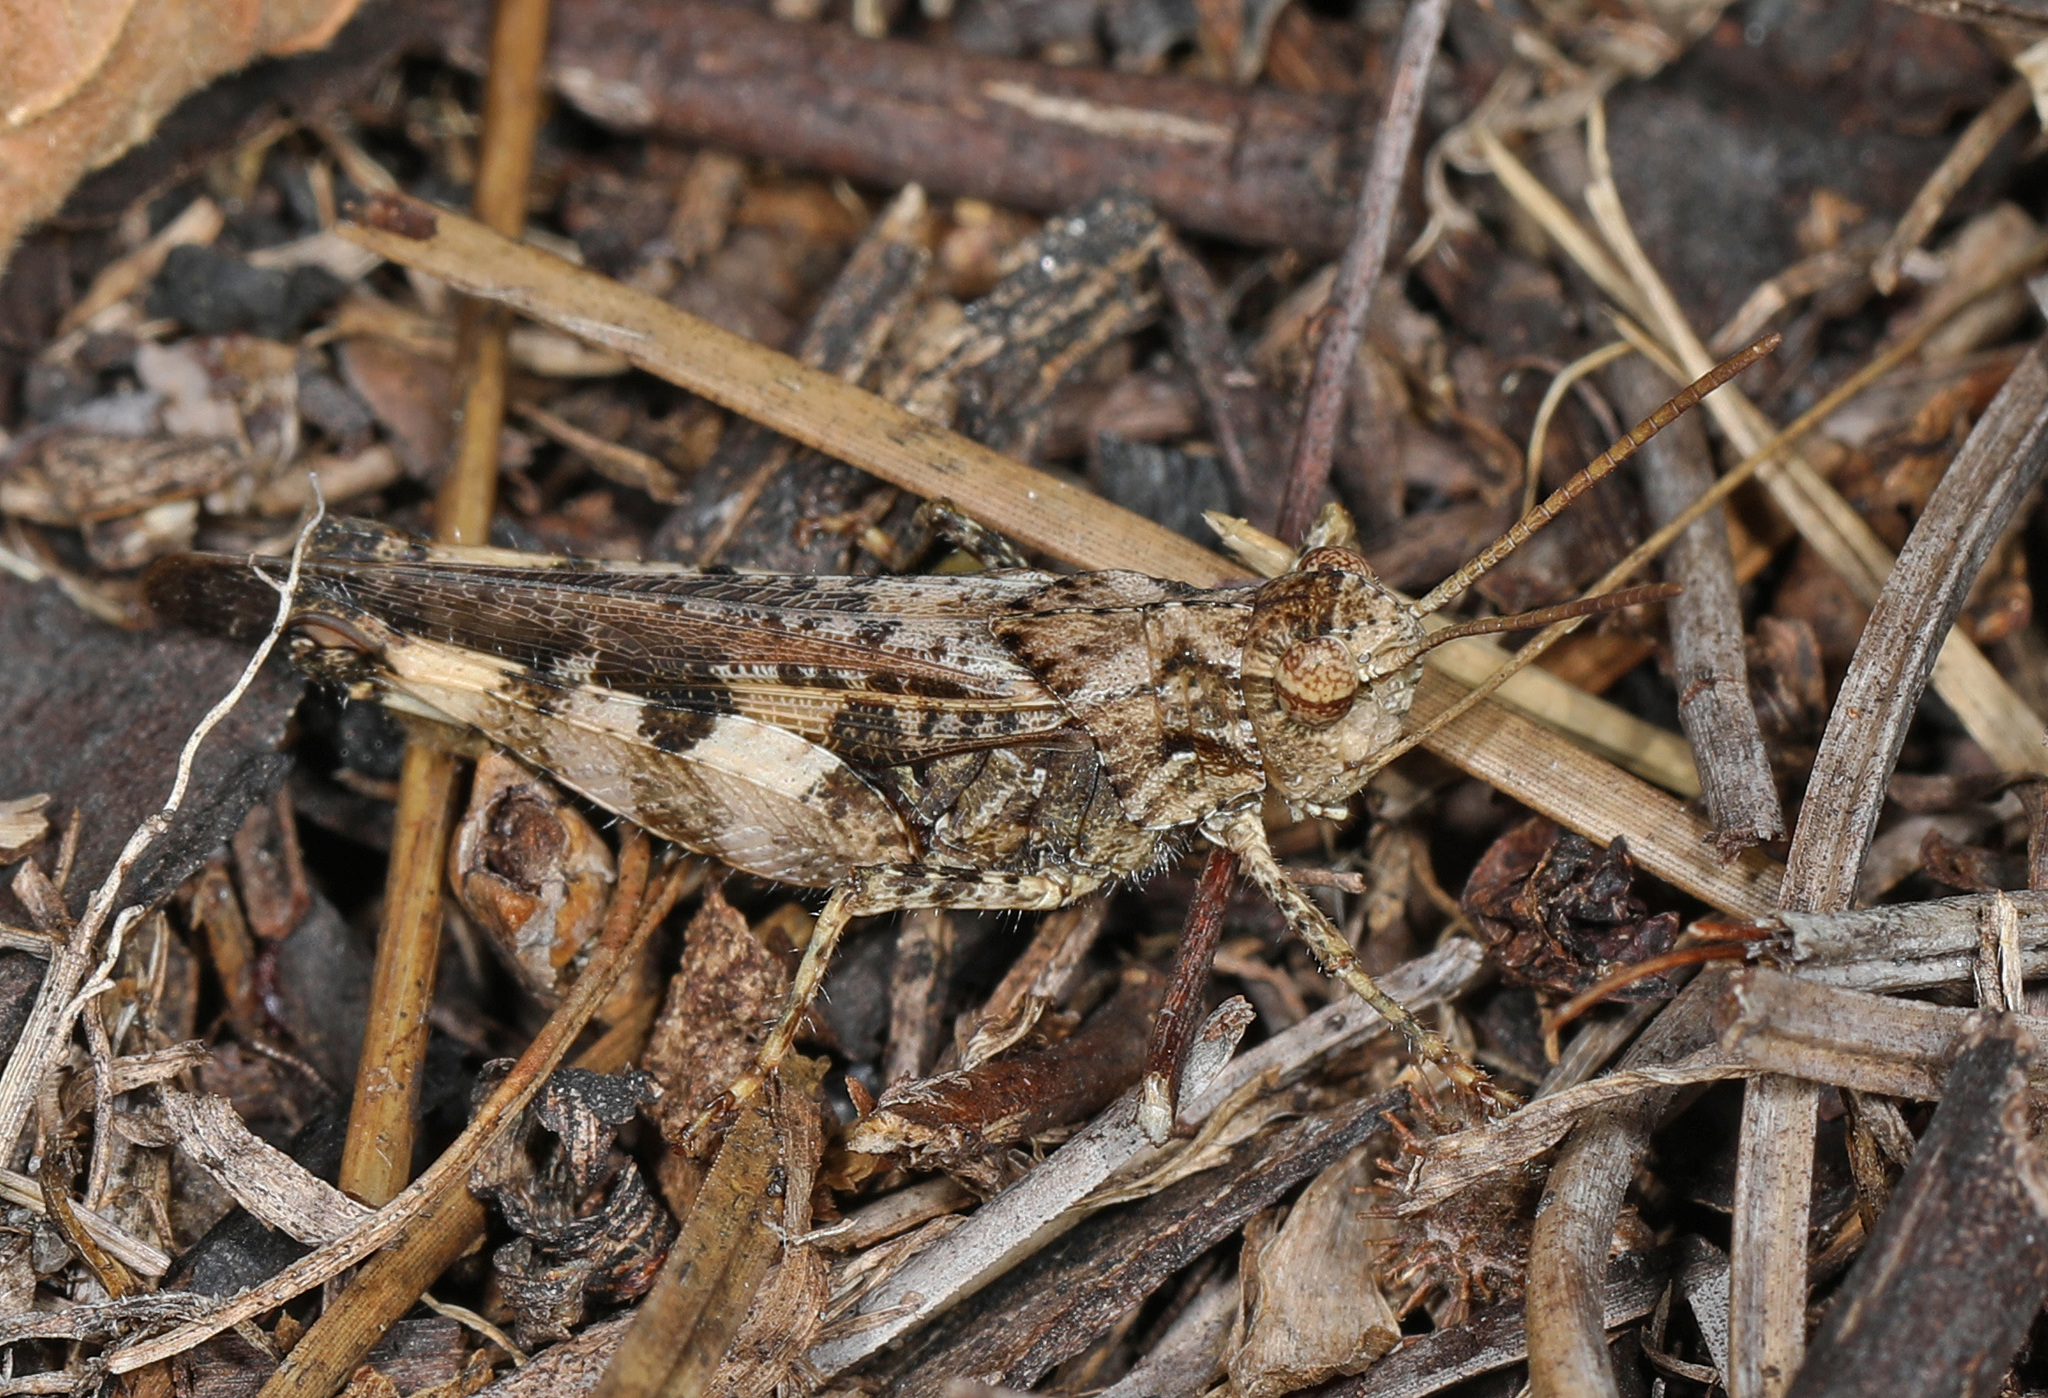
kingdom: Animalia
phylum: Arthropoda
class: Insecta
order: Orthoptera
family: Acrididae
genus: Chortophaga
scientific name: Chortophaga australior
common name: Southern green-striped grasshopper
